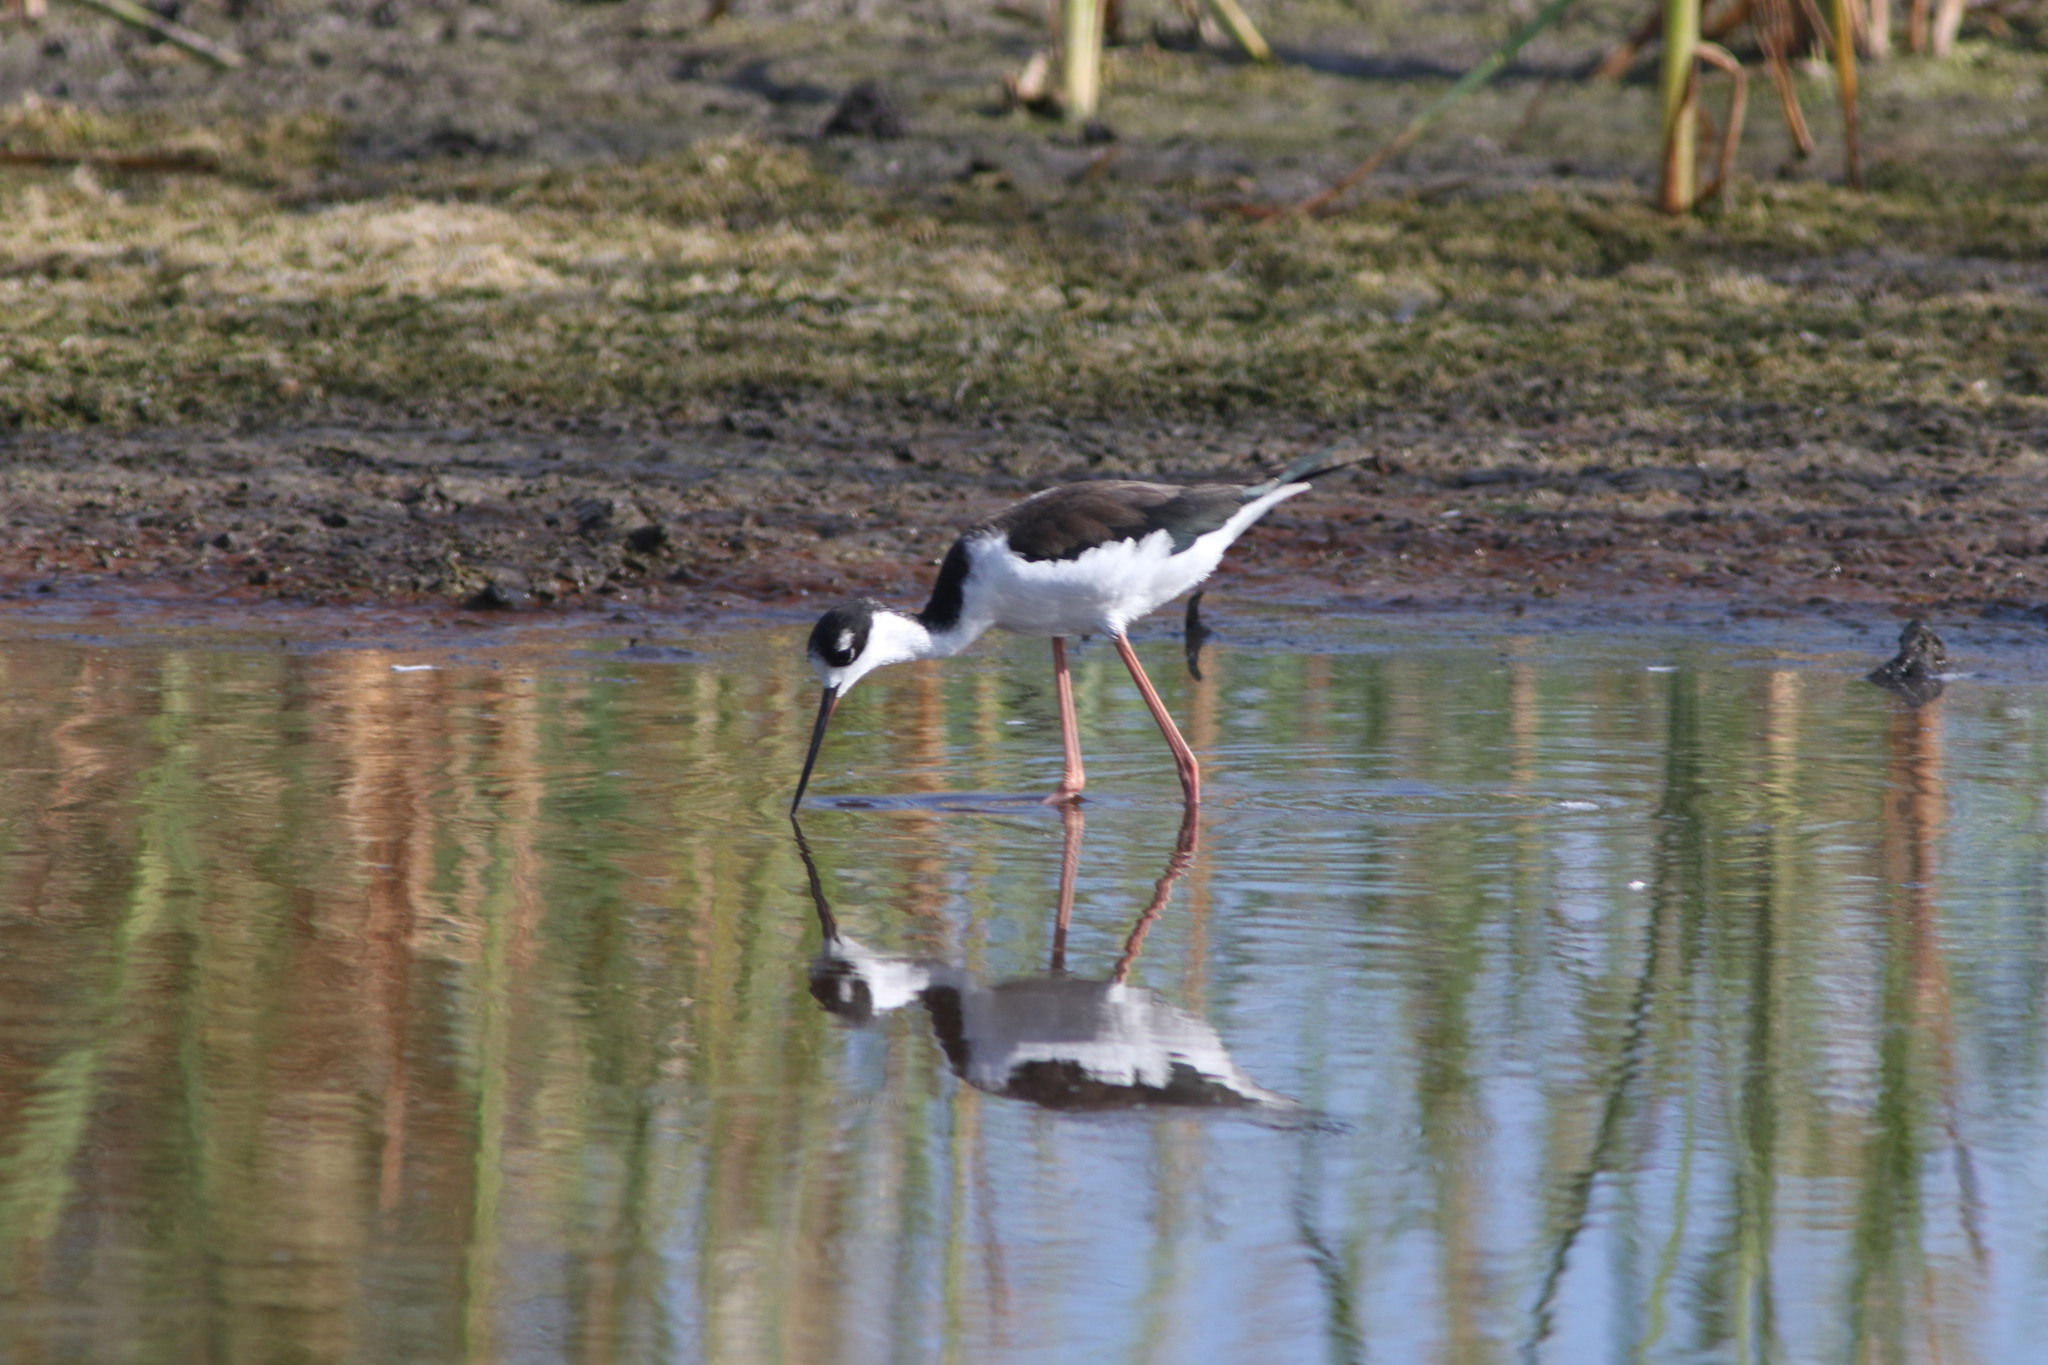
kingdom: Animalia
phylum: Chordata
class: Aves
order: Charadriiformes
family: Recurvirostridae
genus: Himantopus
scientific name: Himantopus mexicanus
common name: Black-necked stilt
